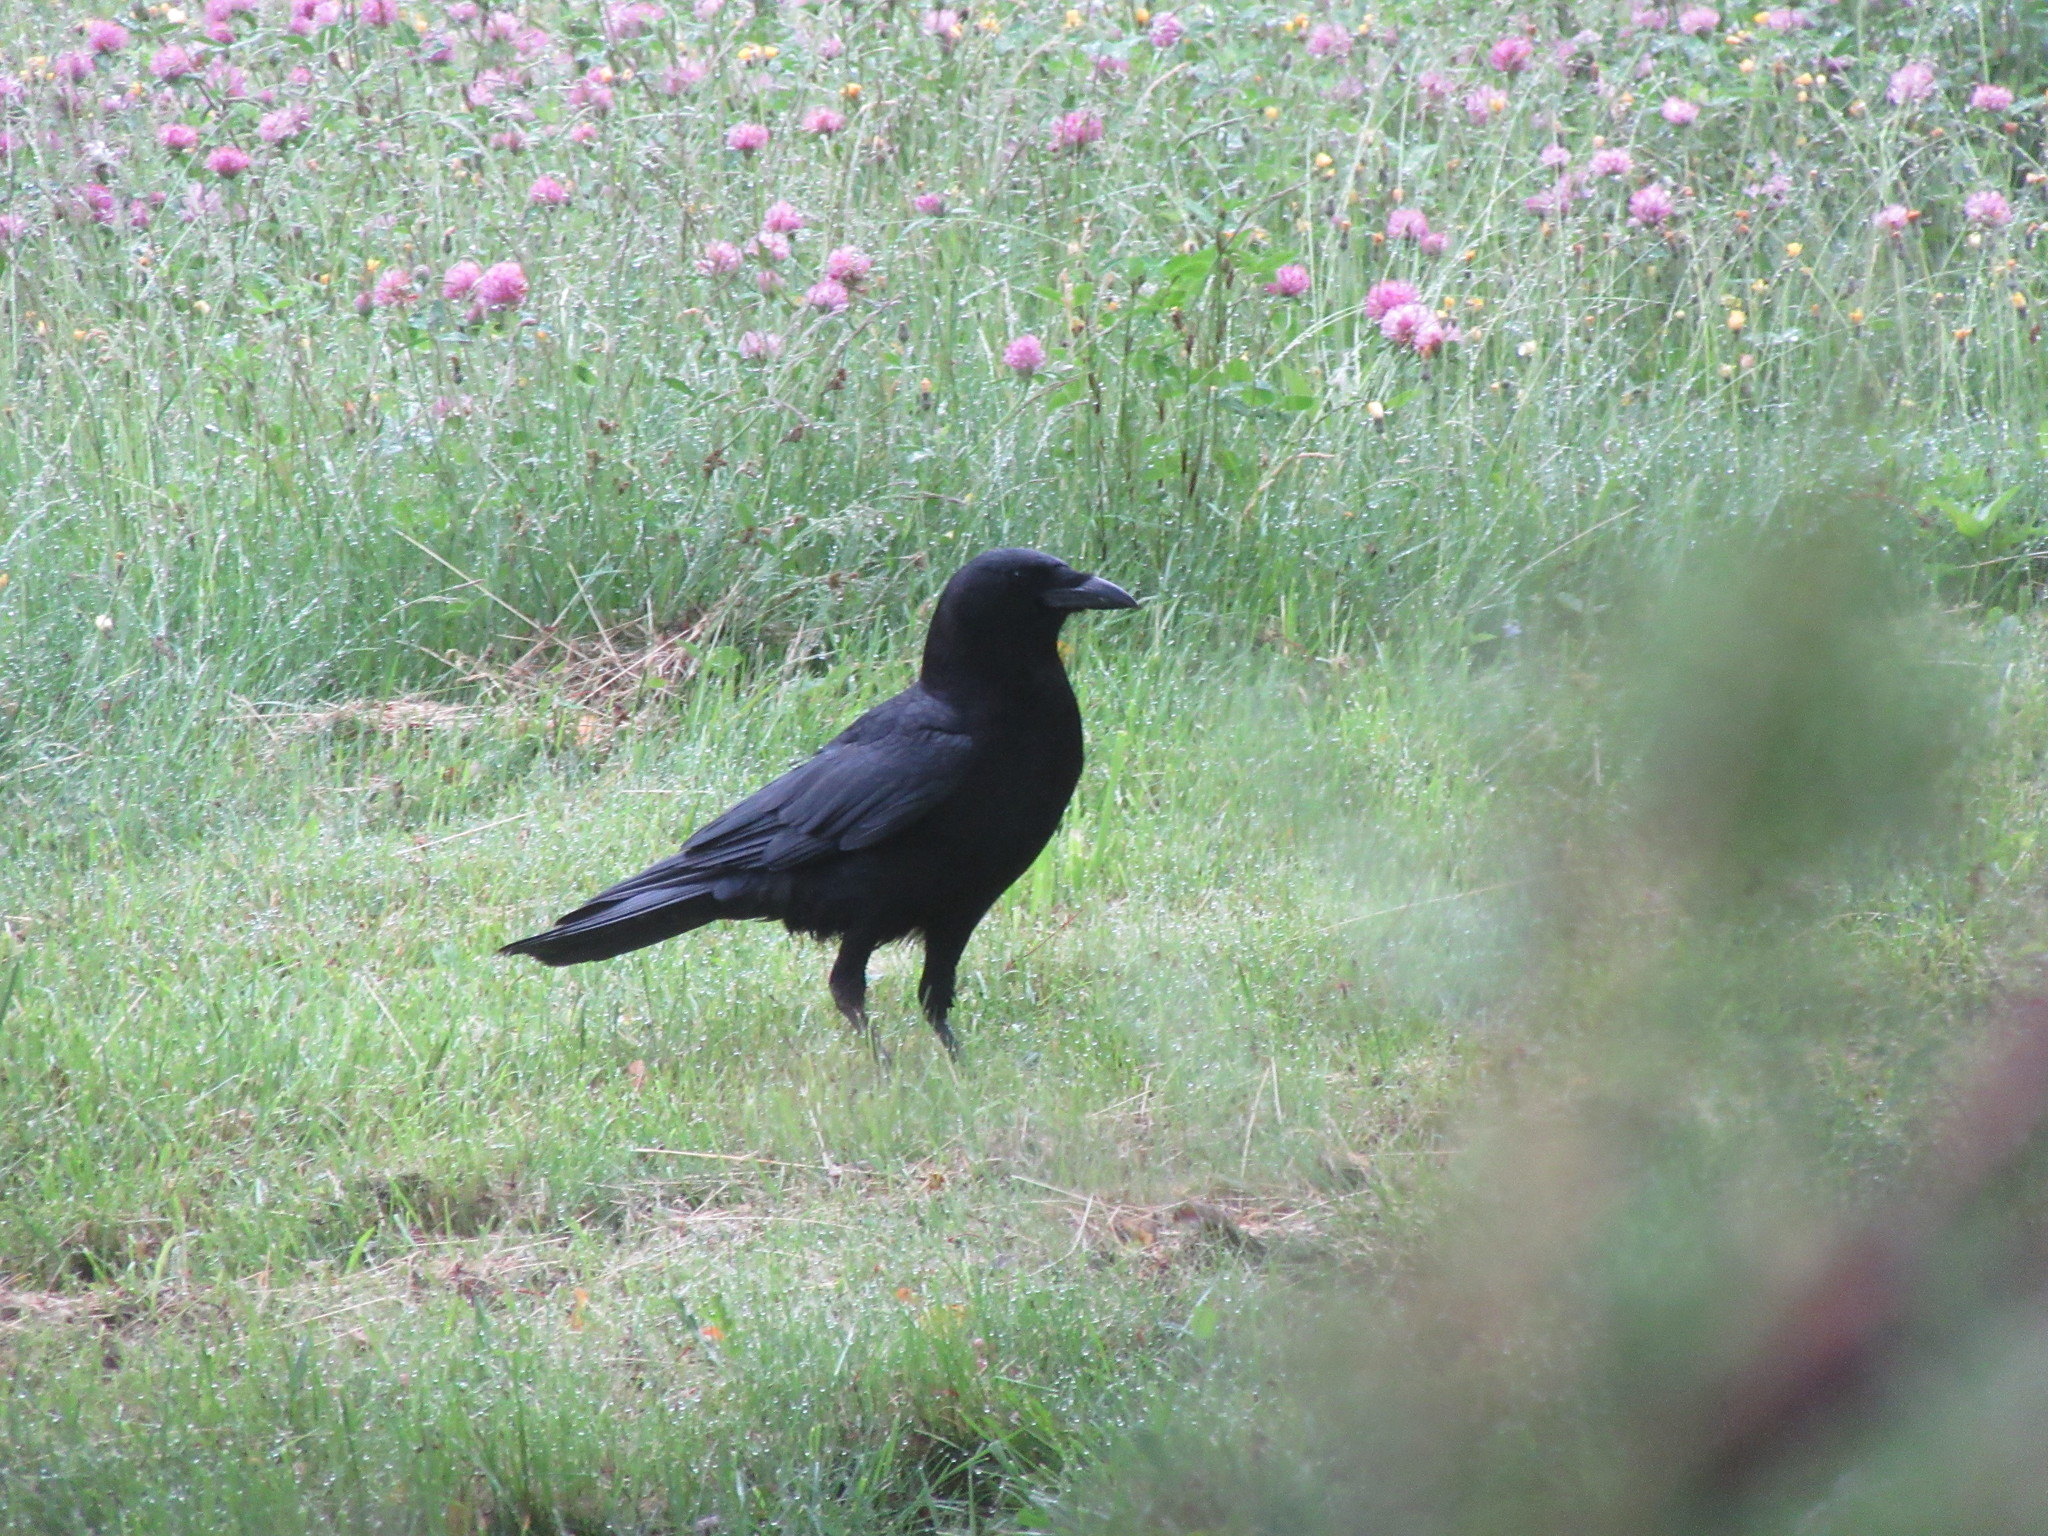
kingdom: Animalia
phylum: Chordata
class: Aves
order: Passeriformes
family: Corvidae
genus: Corvus
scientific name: Corvus brachyrhynchos
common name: American crow
